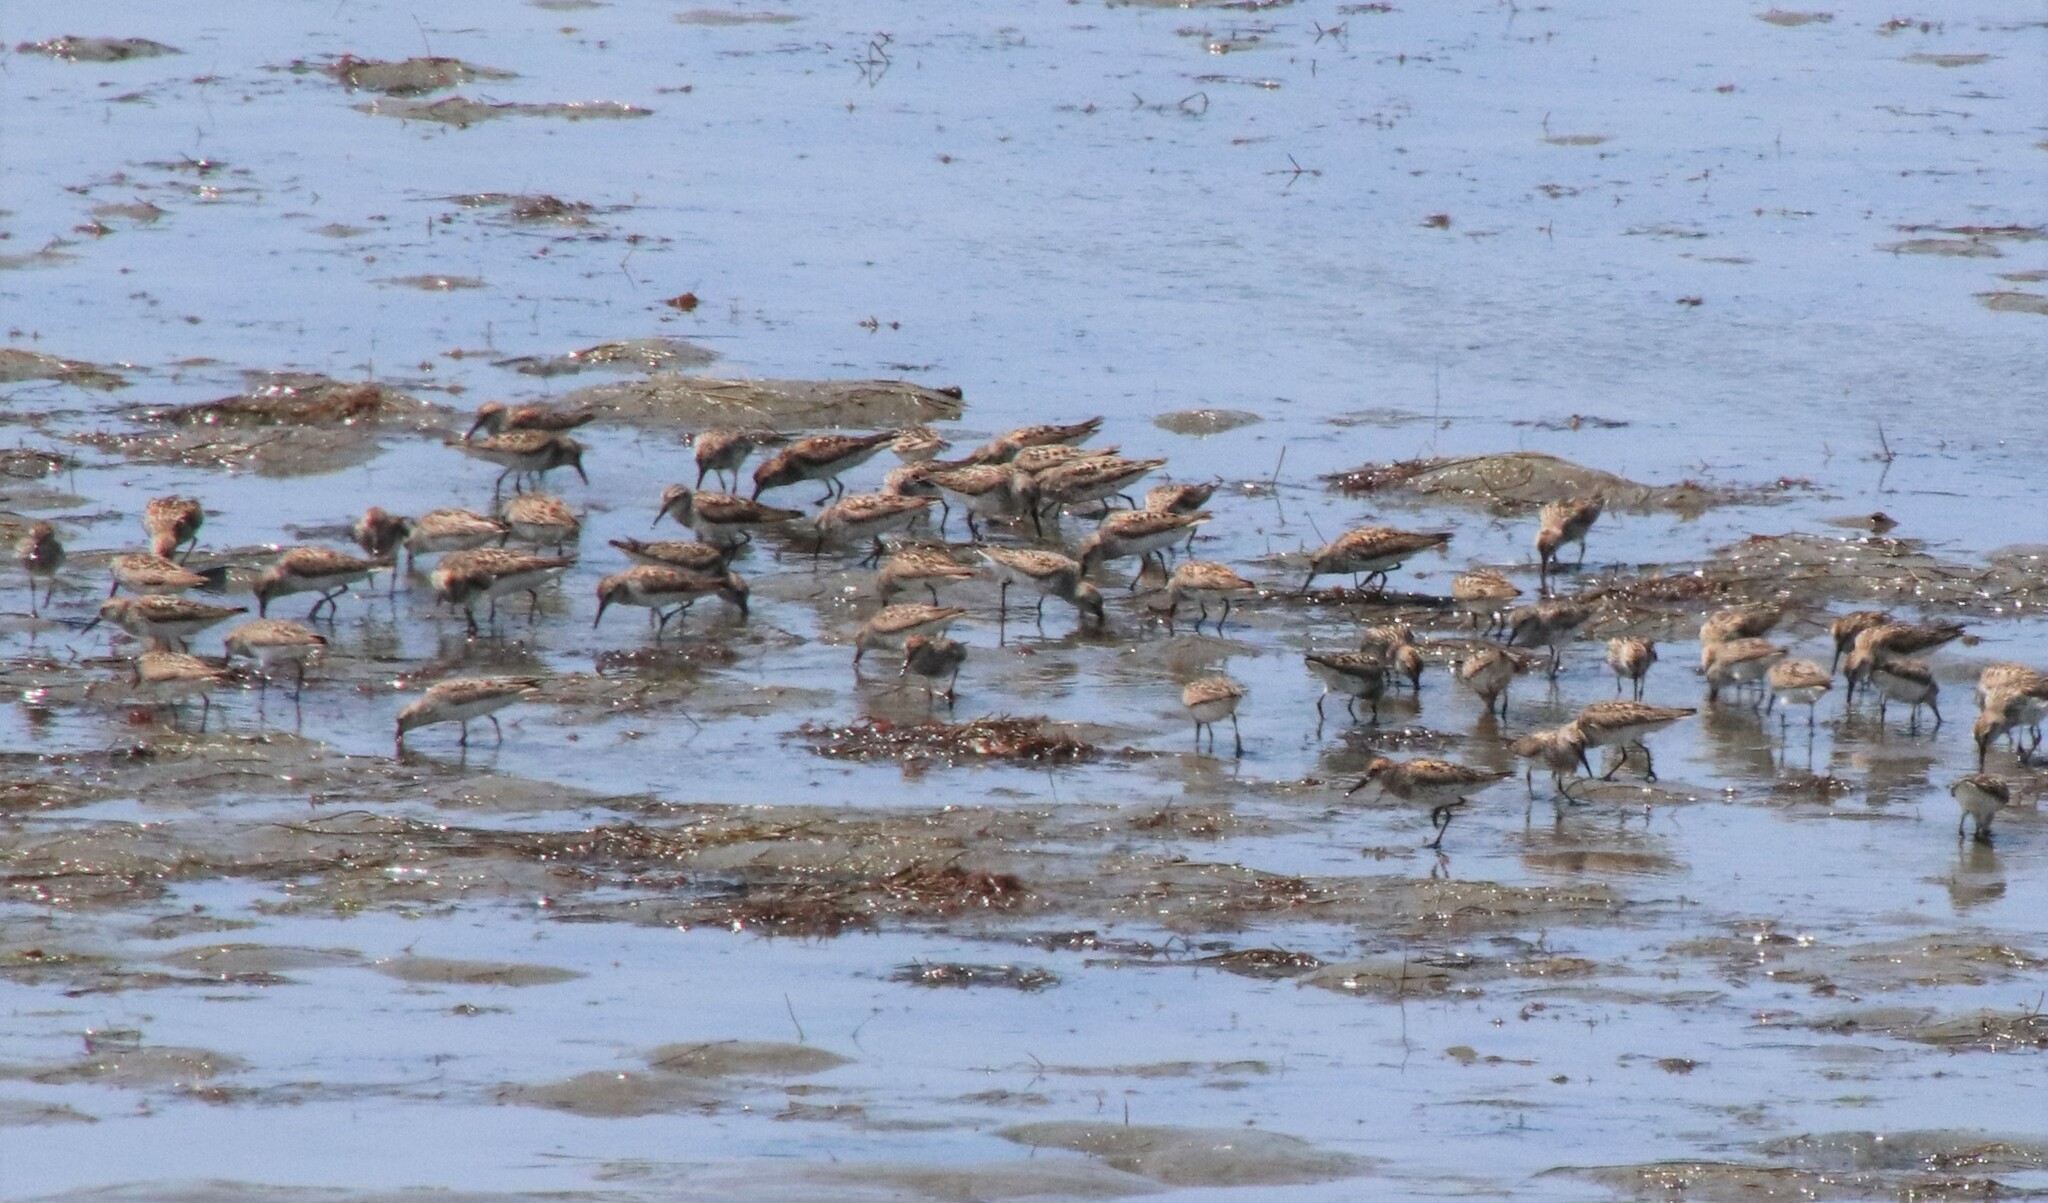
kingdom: Animalia
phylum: Chordata
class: Aves
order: Charadriiformes
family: Scolopacidae
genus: Calidris
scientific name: Calidris mauri
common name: Western sandpiper
